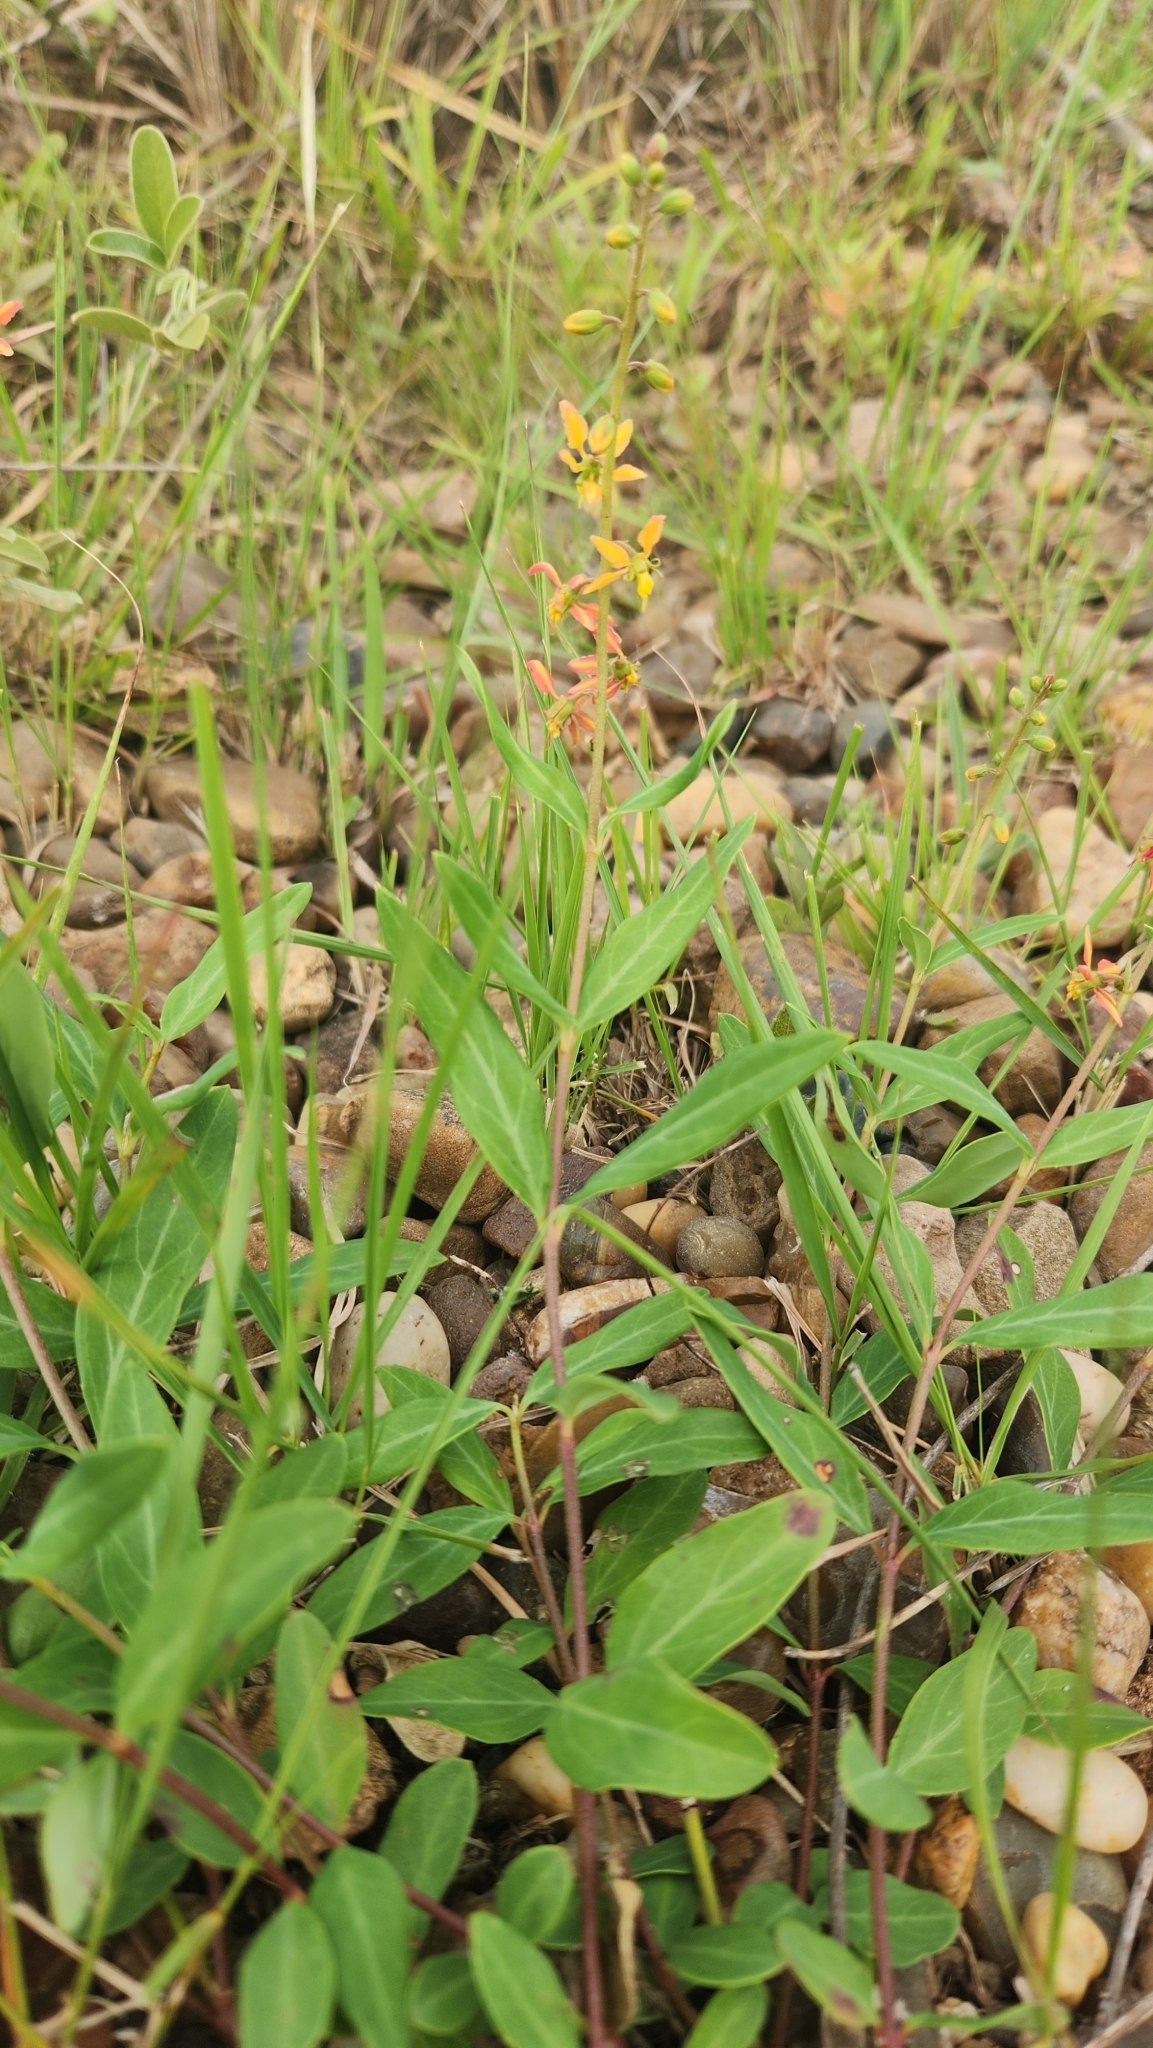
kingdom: Plantae
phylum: Tracheophyta
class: Magnoliopsida
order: Malpighiales
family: Malpighiaceae
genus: Galphimia
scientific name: Galphimia australis
